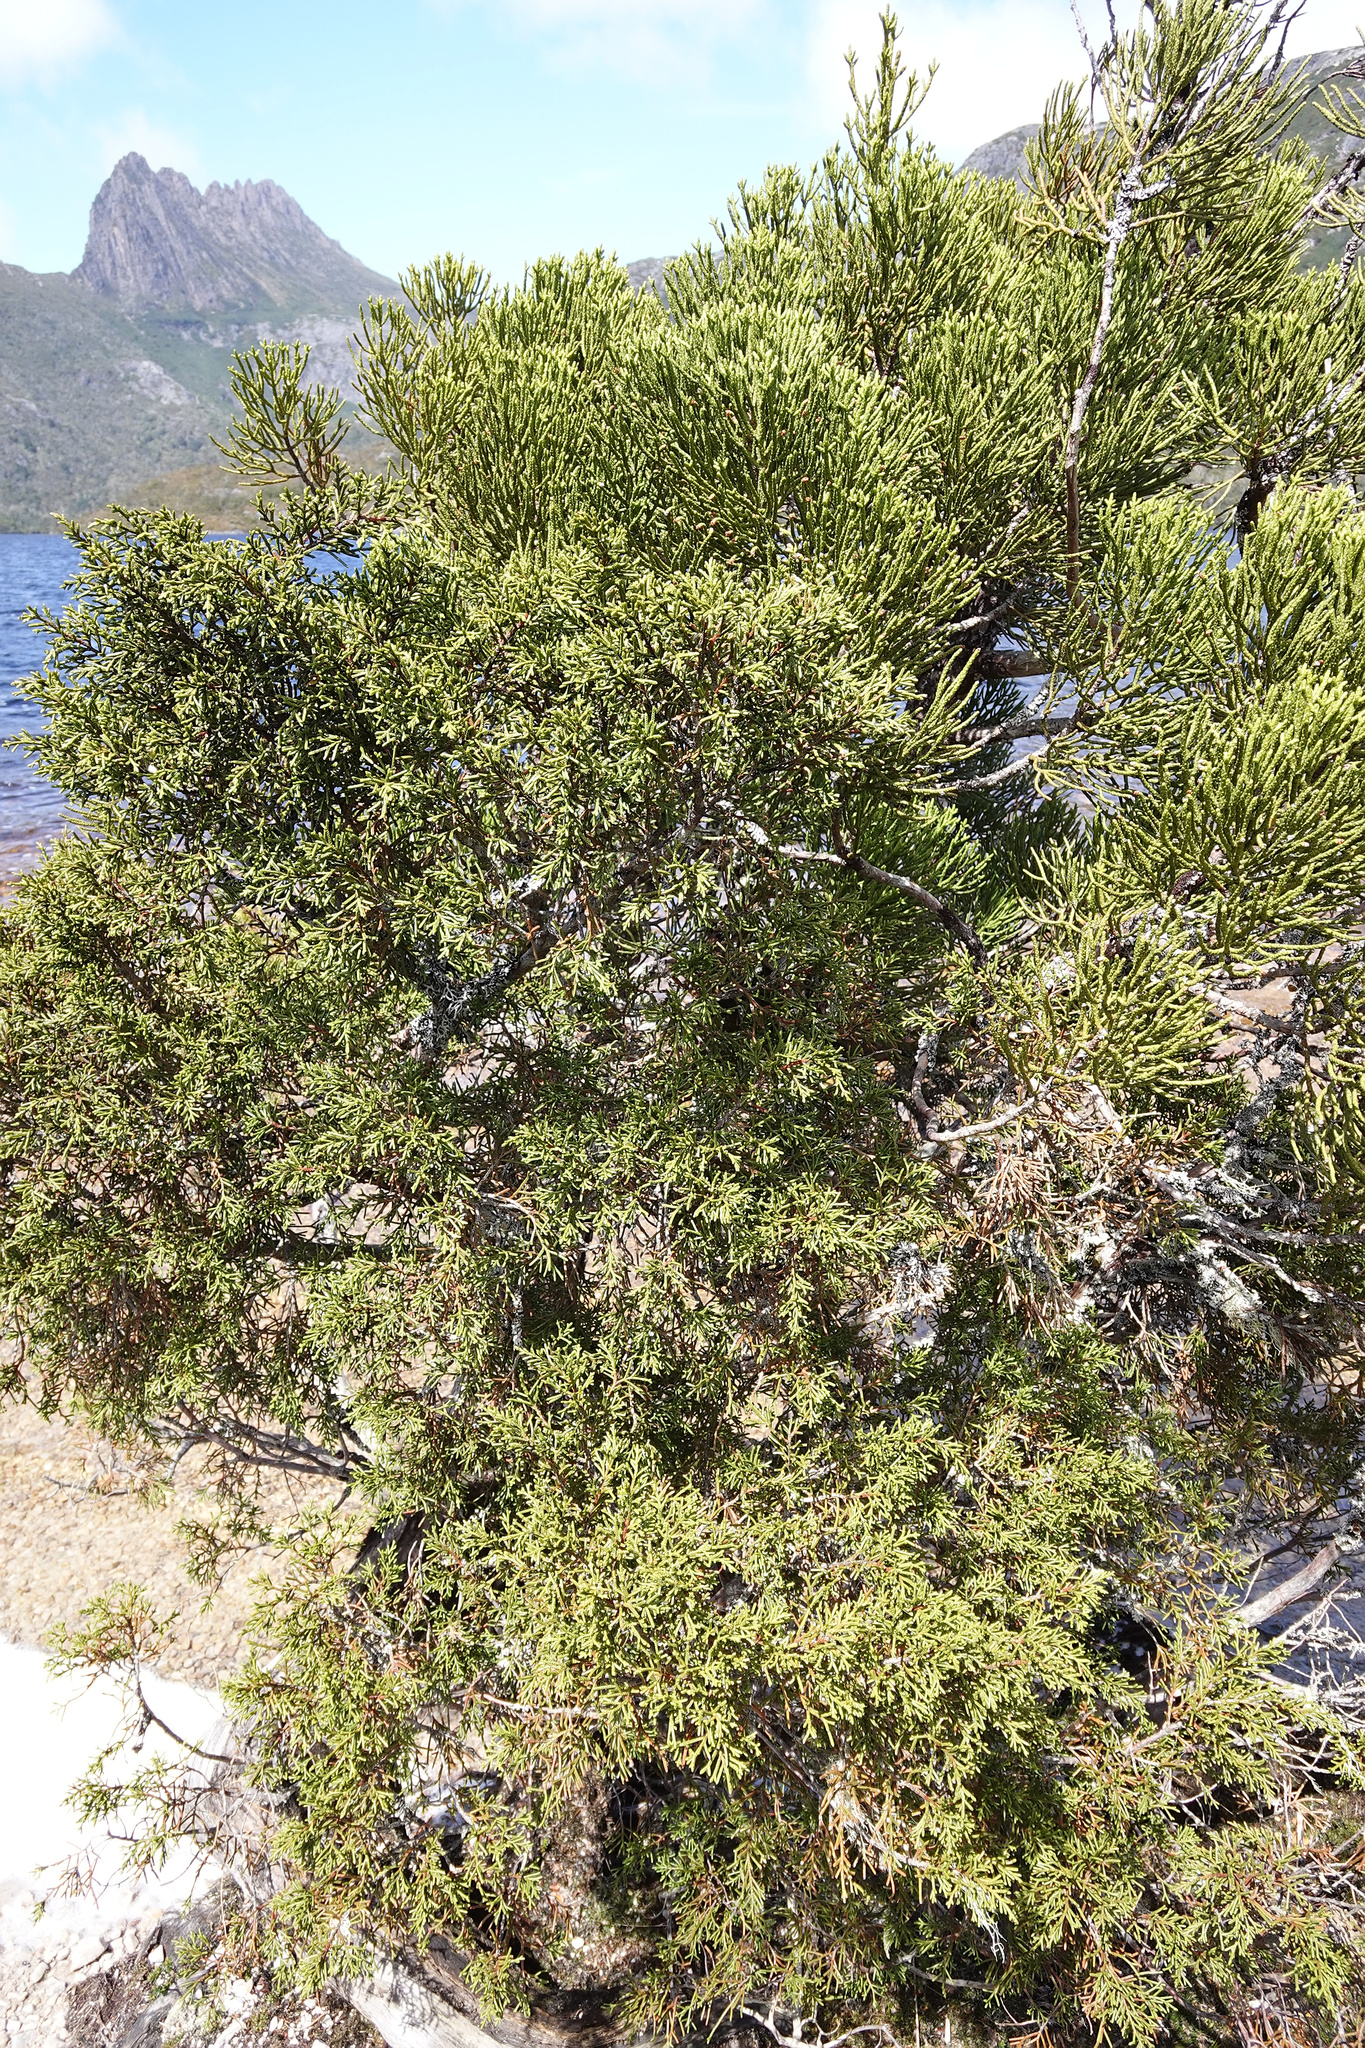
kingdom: Plantae
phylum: Tracheophyta
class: Pinopsida
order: Pinales
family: Cupressaceae
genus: Athrotaxis
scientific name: Athrotaxis cupressoides
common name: Tasmanian pencil pine
